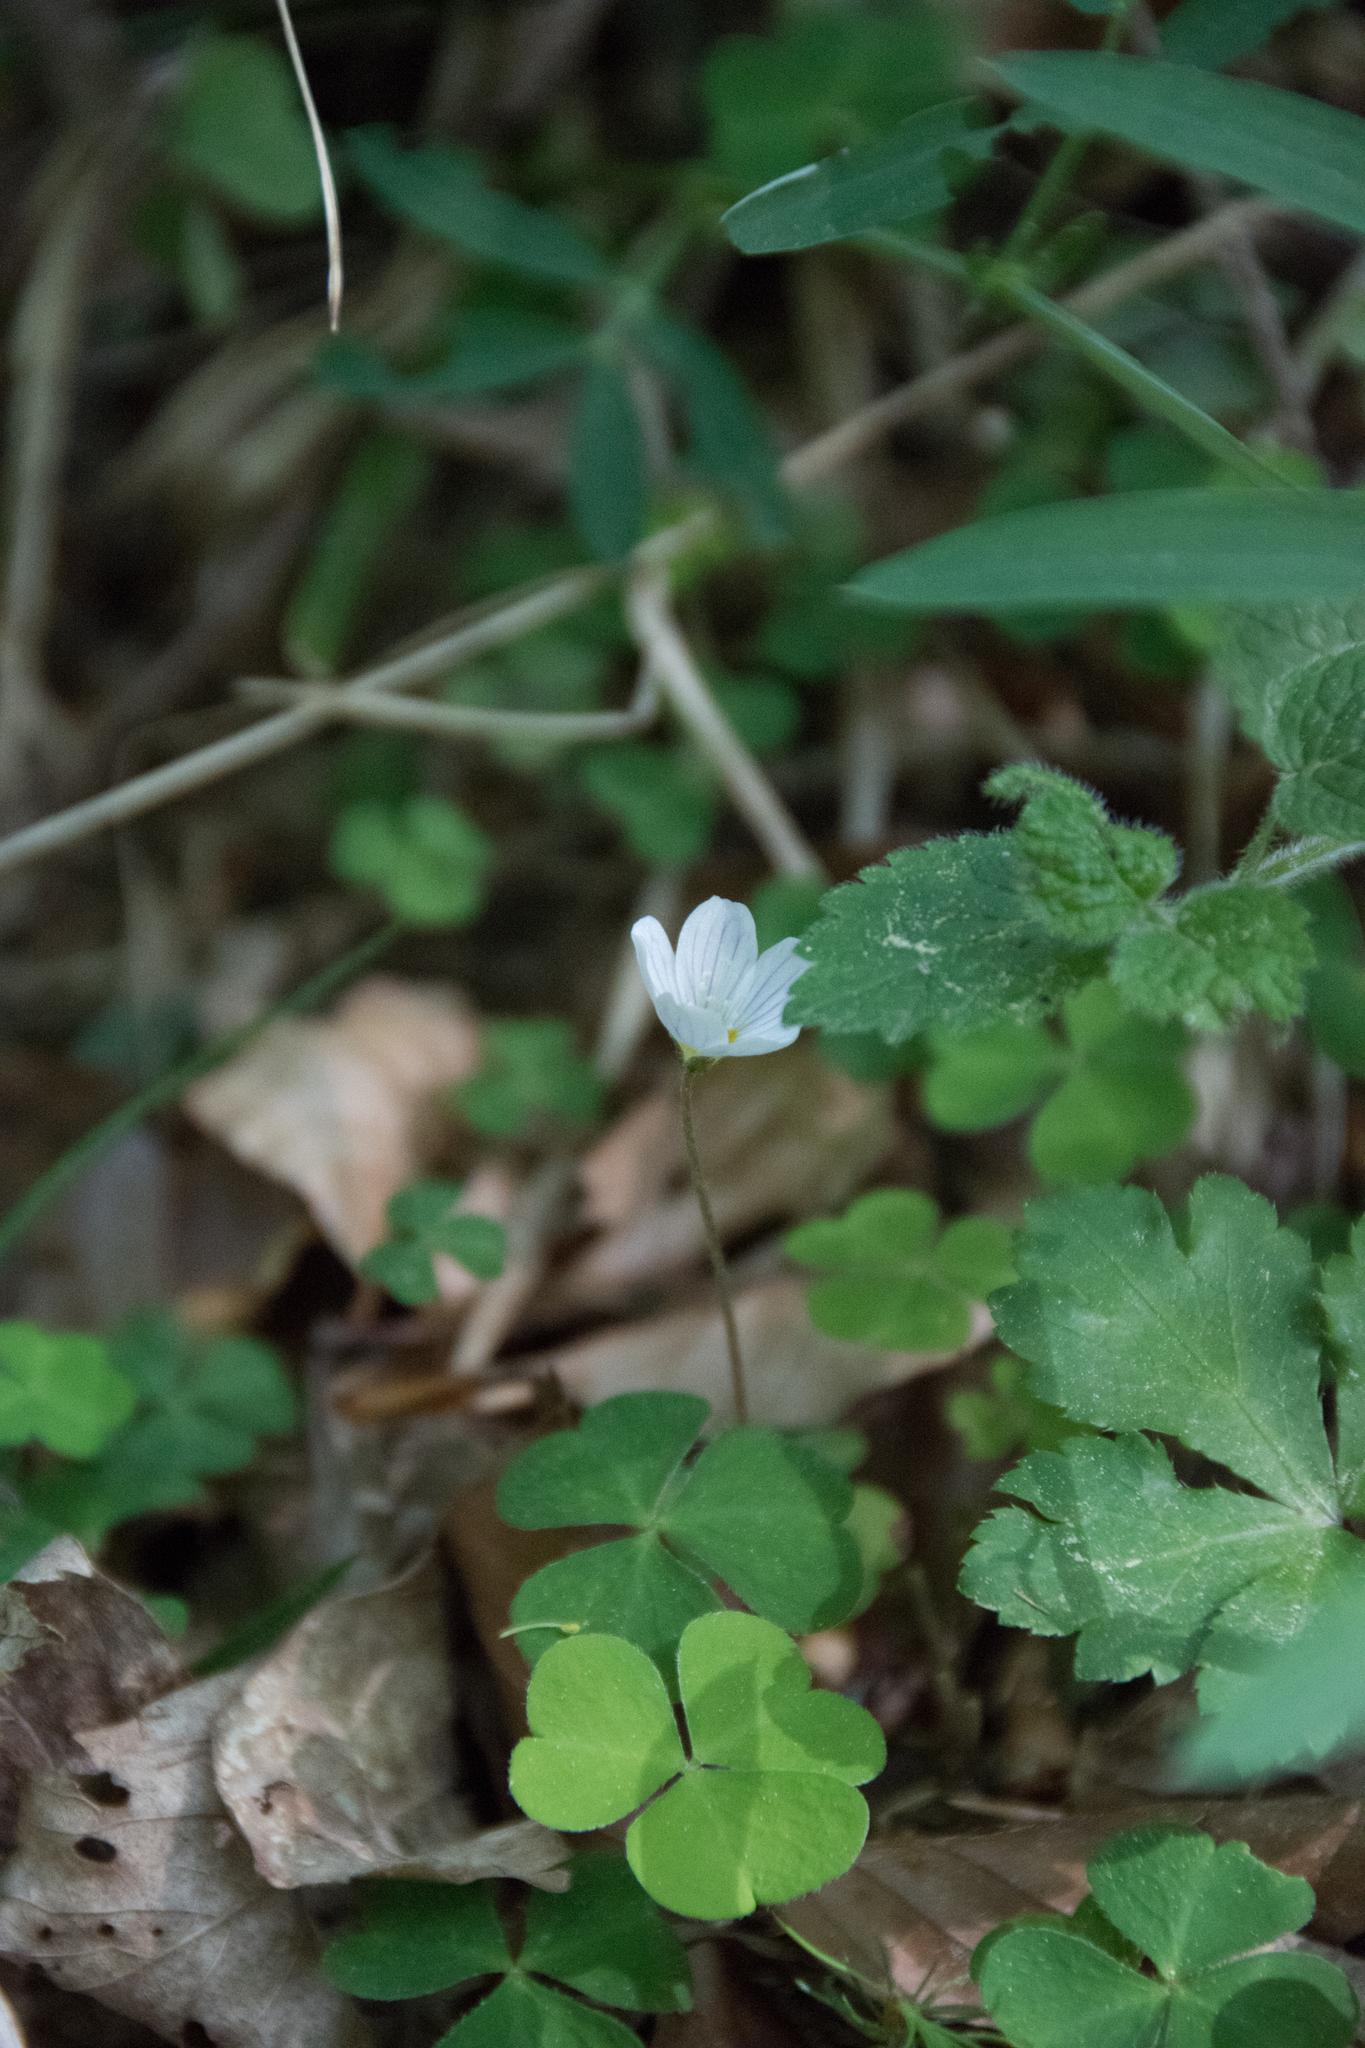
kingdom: Plantae
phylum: Tracheophyta
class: Magnoliopsida
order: Oxalidales
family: Oxalidaceae
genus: Oxalis
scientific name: Oxalis acetosella
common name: Wood-sorrel
